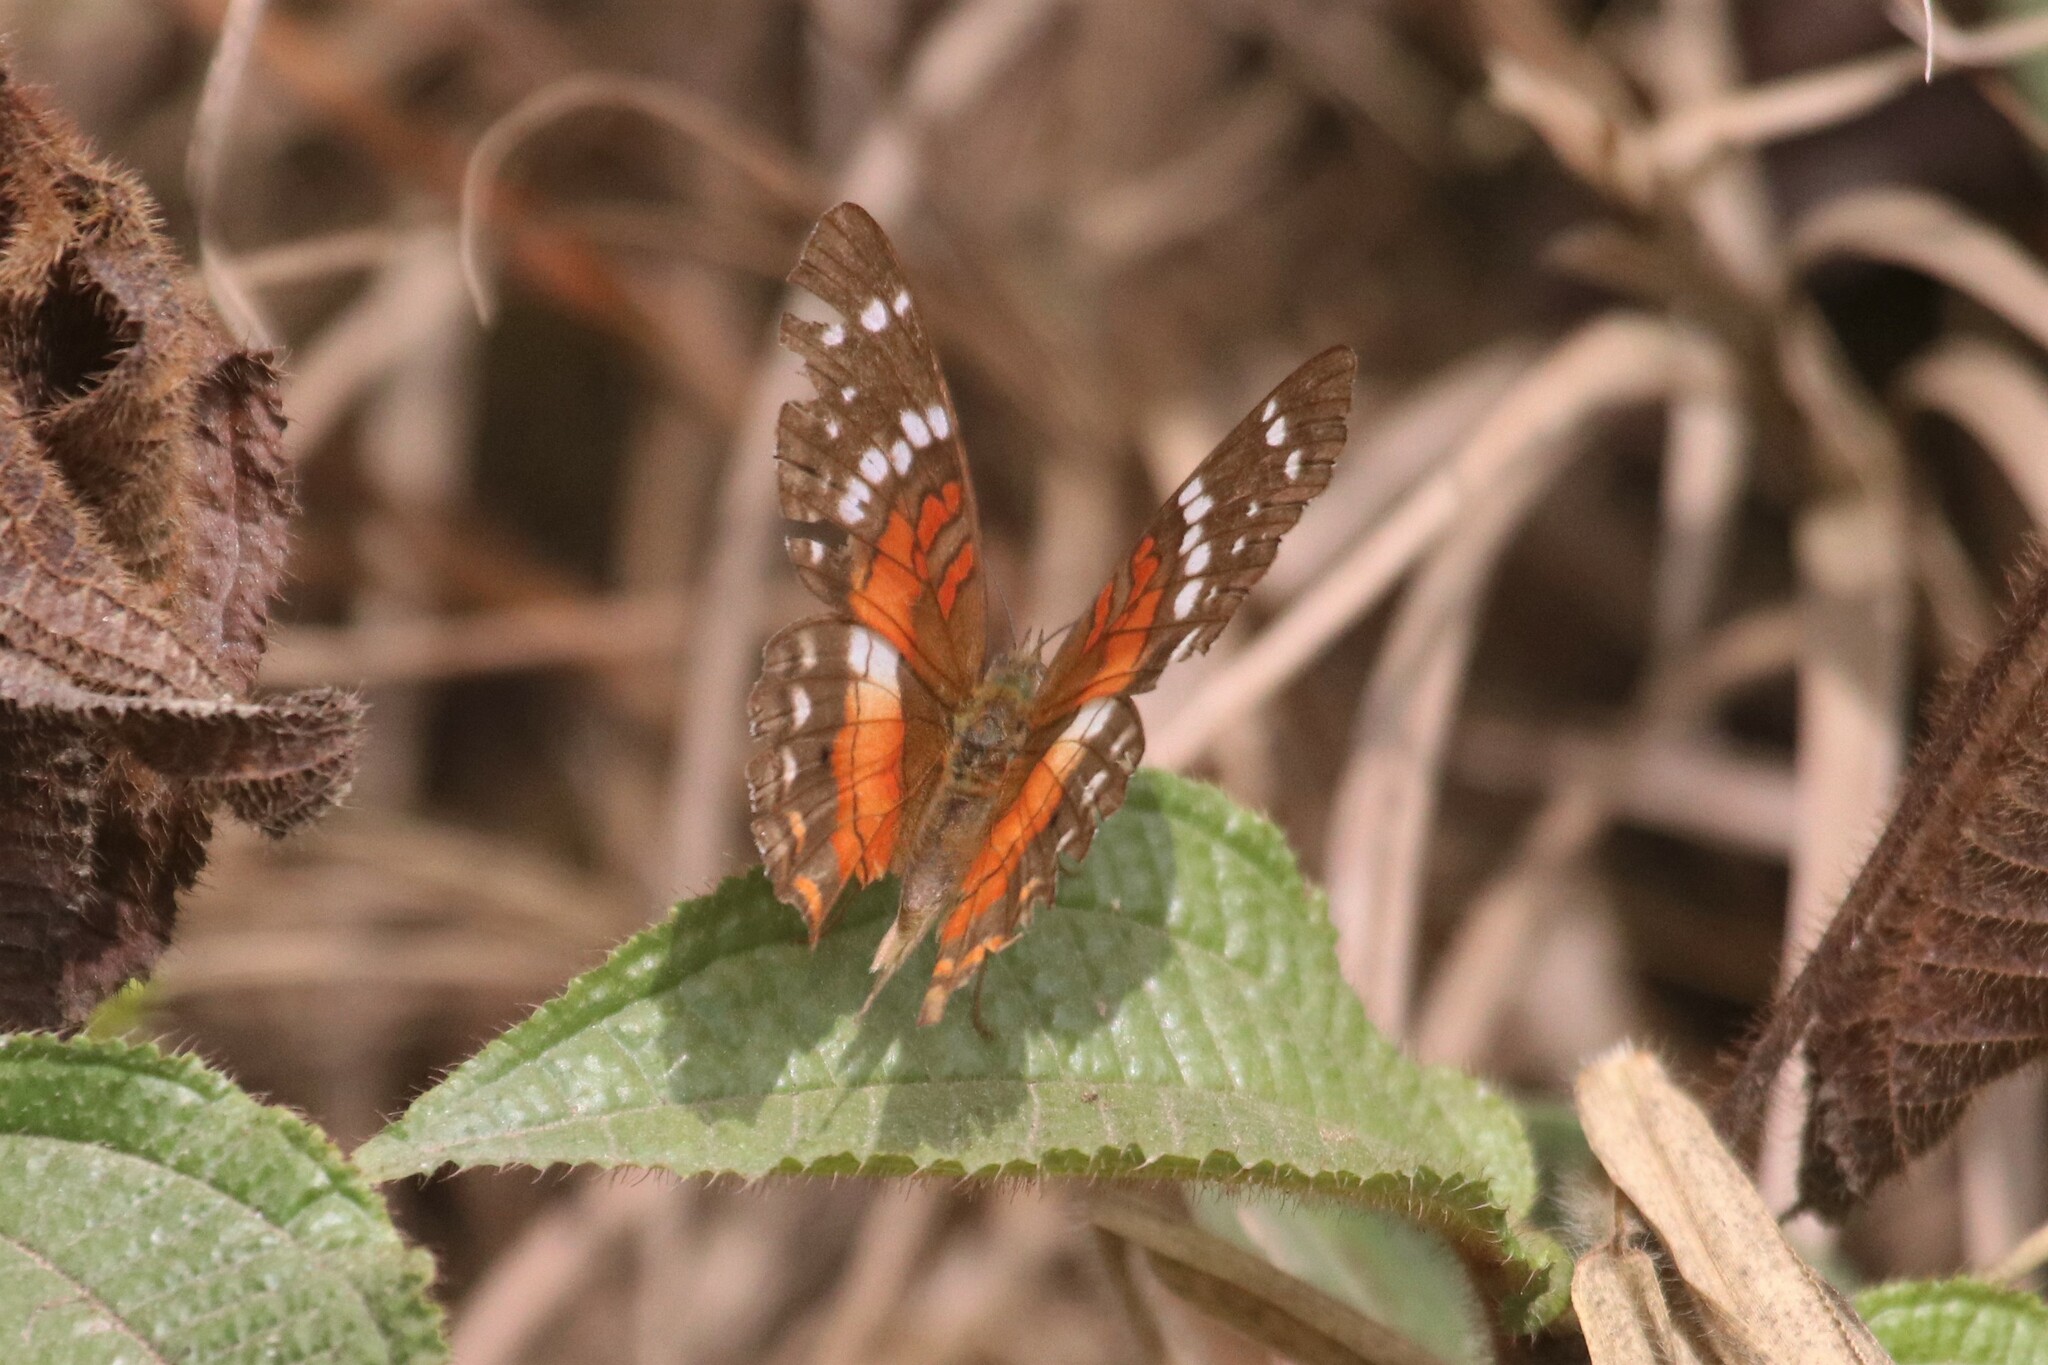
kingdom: Animalia
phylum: Arthropoda
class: Insecta
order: Lepidoptera
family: Nymphalidae
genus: Anartia
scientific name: Anartia amathea
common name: Red peacock
